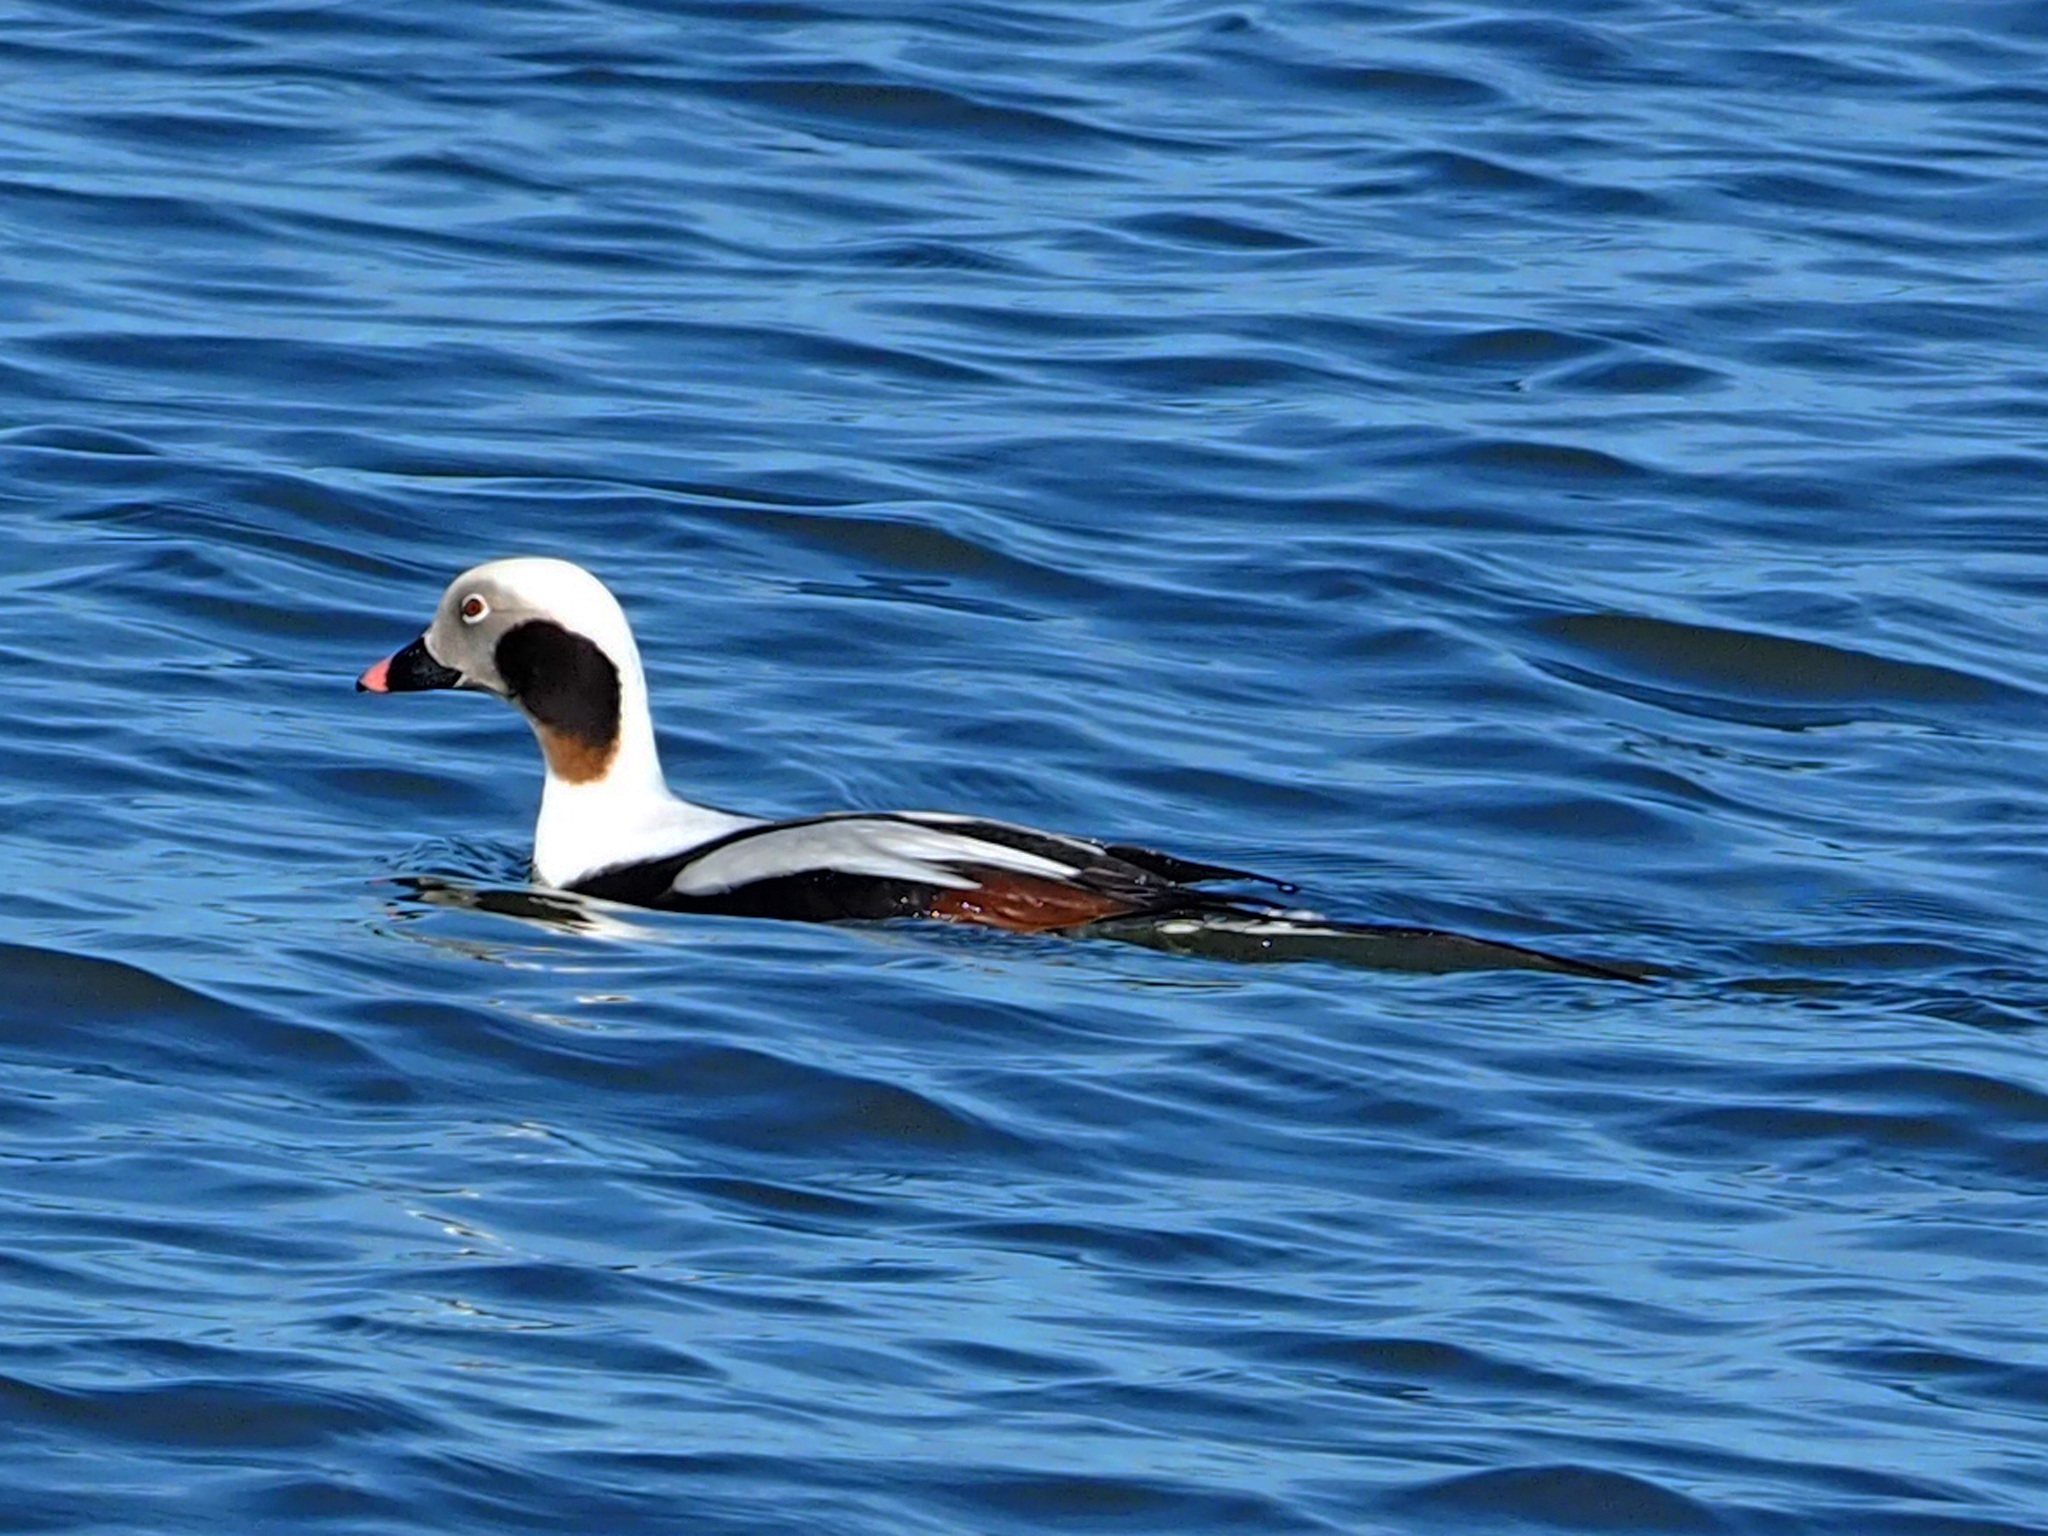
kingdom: Animalia
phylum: Chordata
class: Aves
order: Anseriformes
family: Anatidae
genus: Clangula
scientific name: Clangula hyemalis
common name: Long-tailed duck
